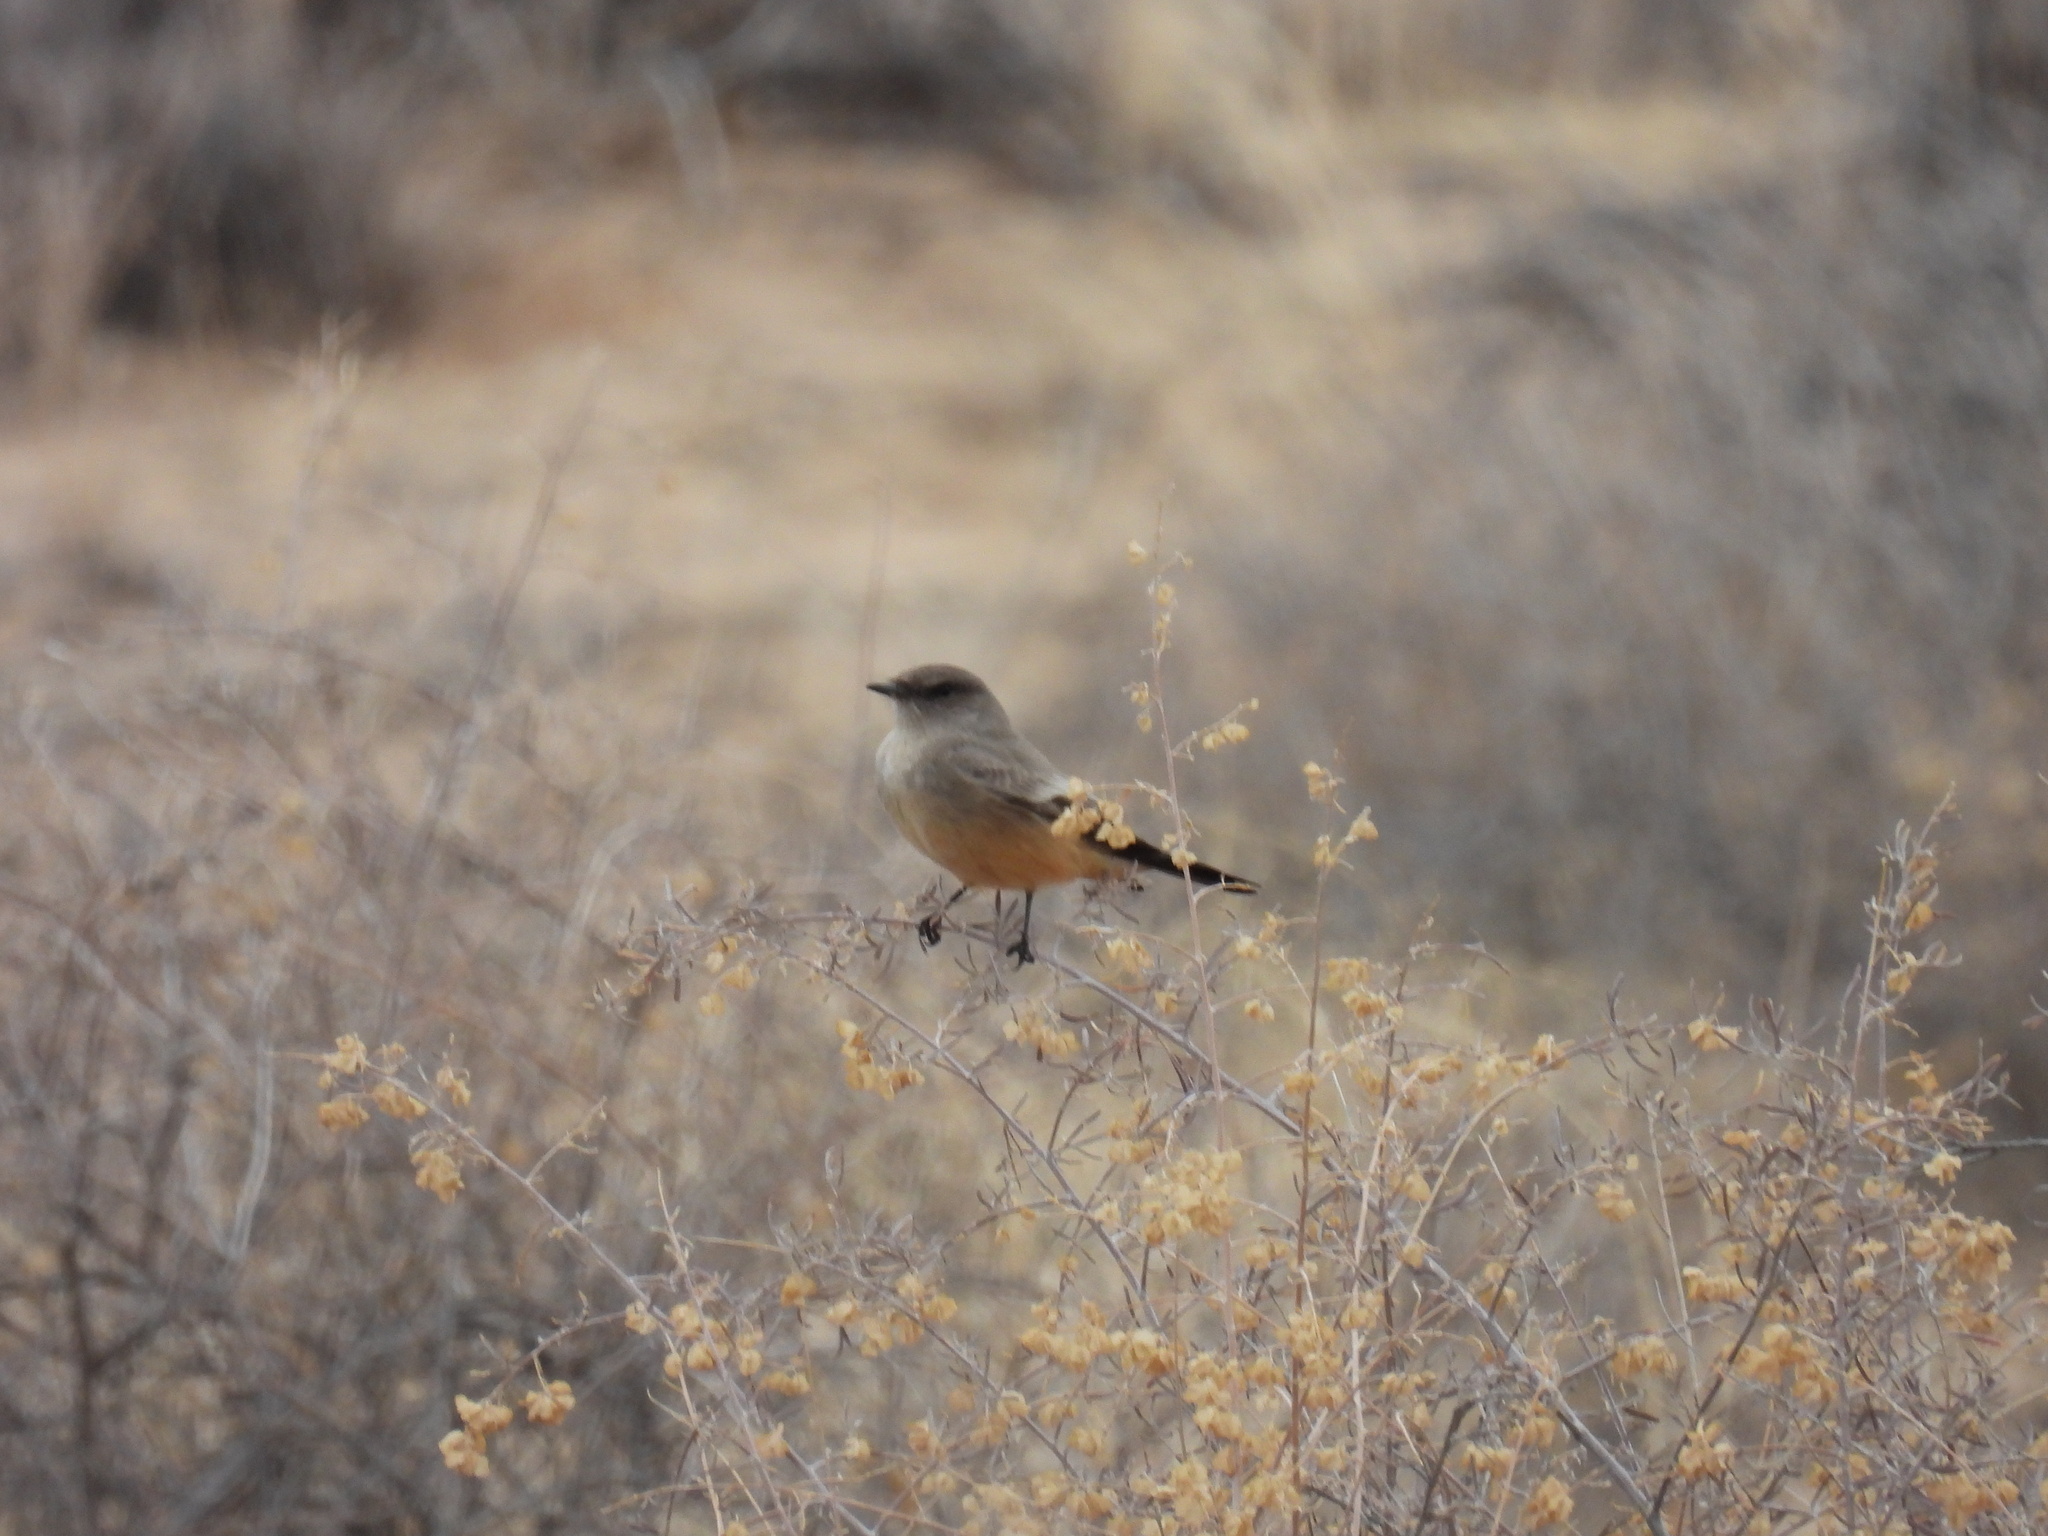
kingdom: Animalia
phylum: Chordata
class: Aves
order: Passeriformes
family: Tyrannidae
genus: Sayornis
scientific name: Sayornis saya
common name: Say's phoebe
